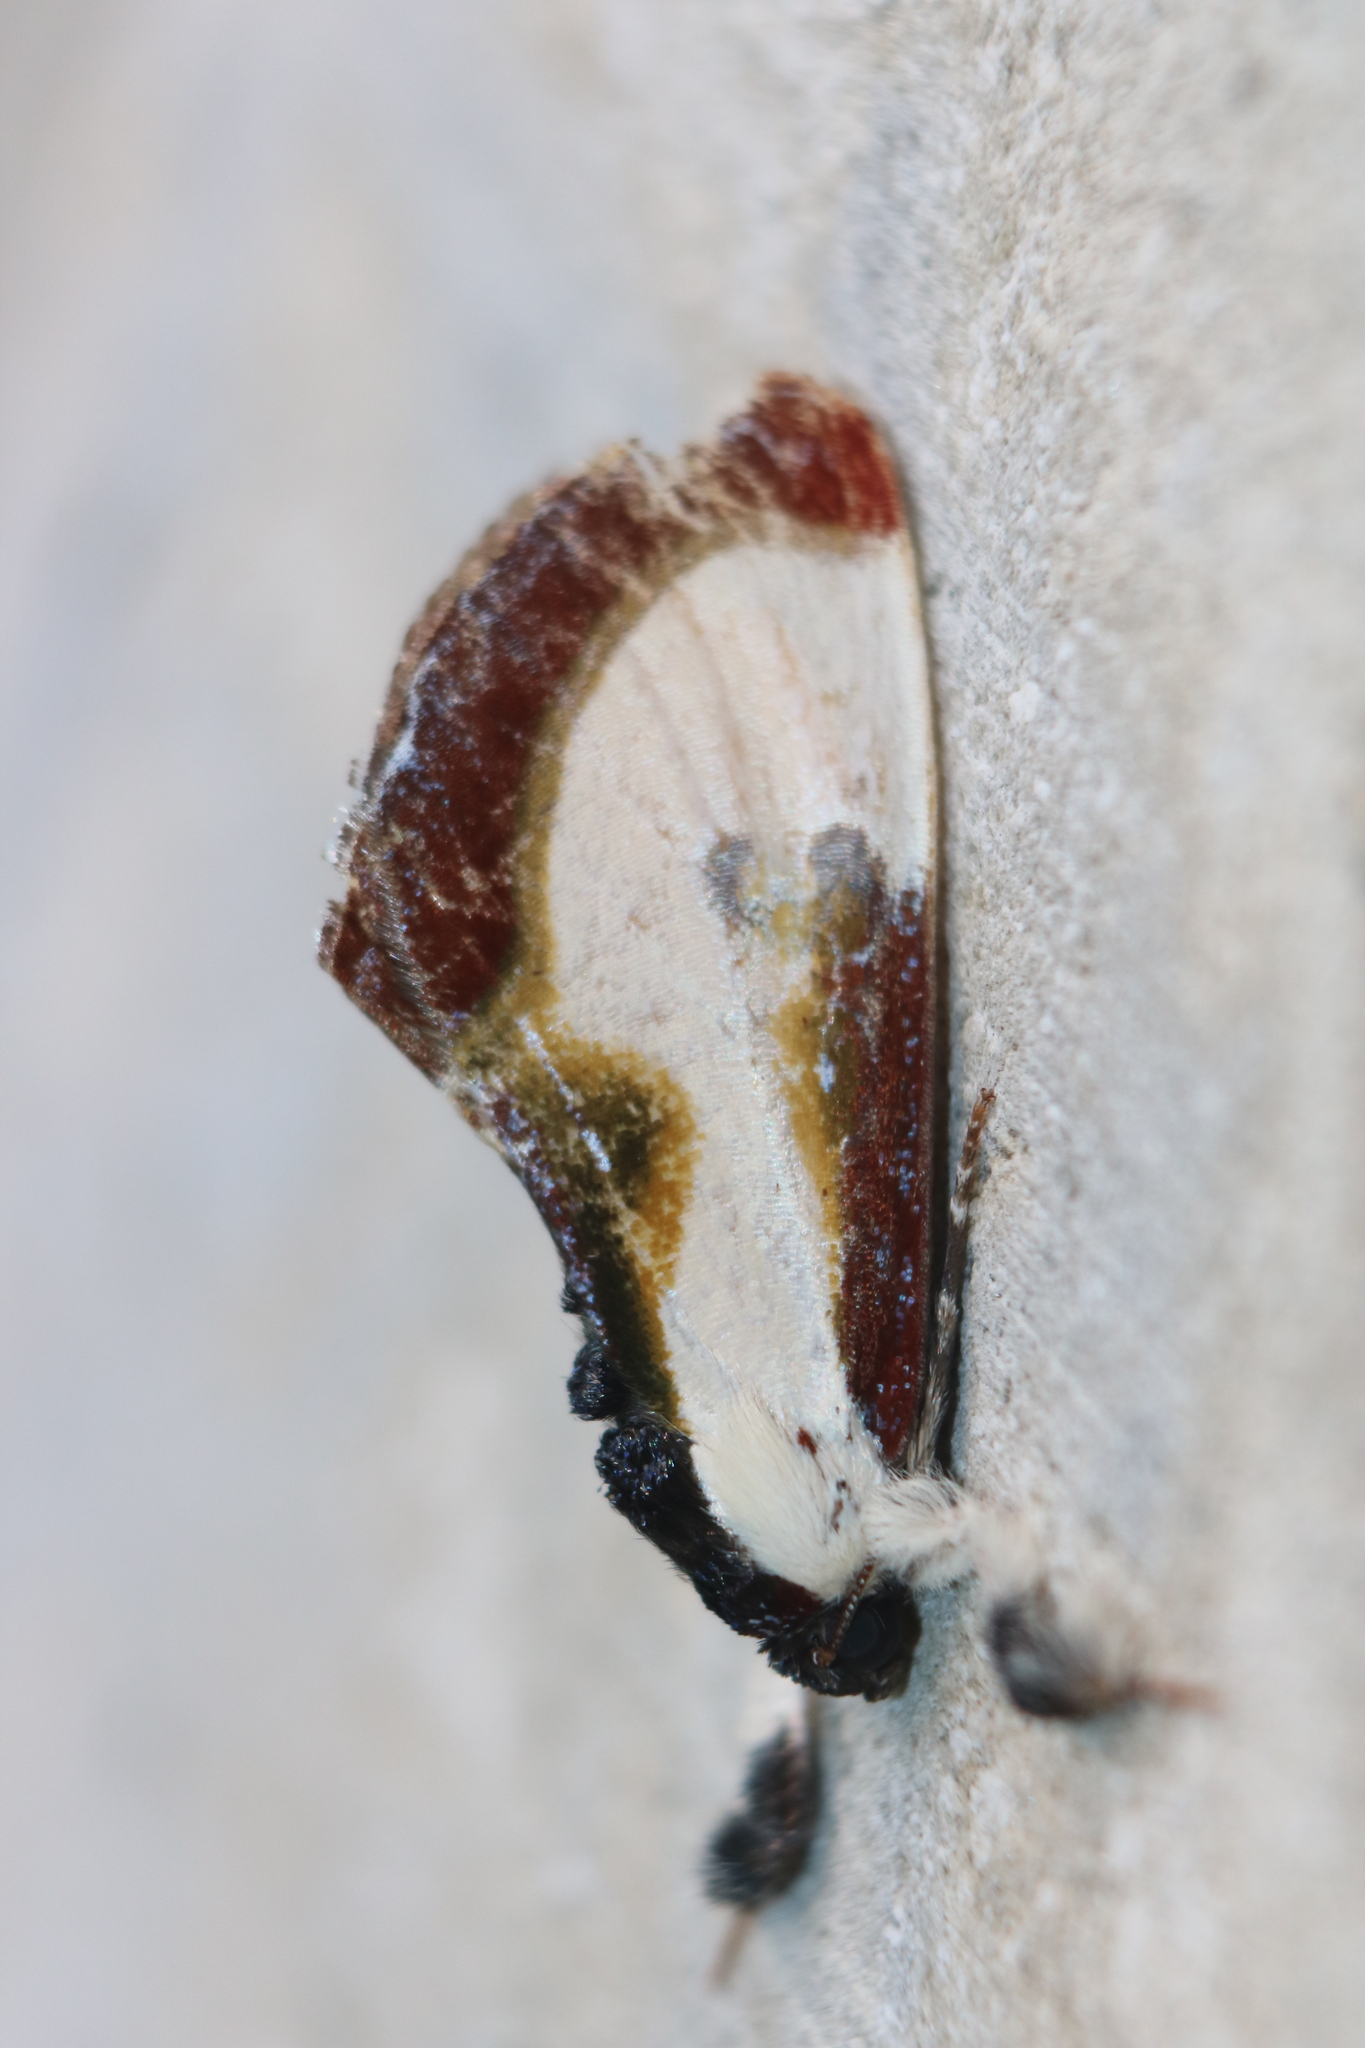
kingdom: Animalia
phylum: Arthropoda
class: Insecta
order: Lepidoptera
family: Noctuidae
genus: Eudryas
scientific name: Eudryas grata
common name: Beautiful wood-nymph
